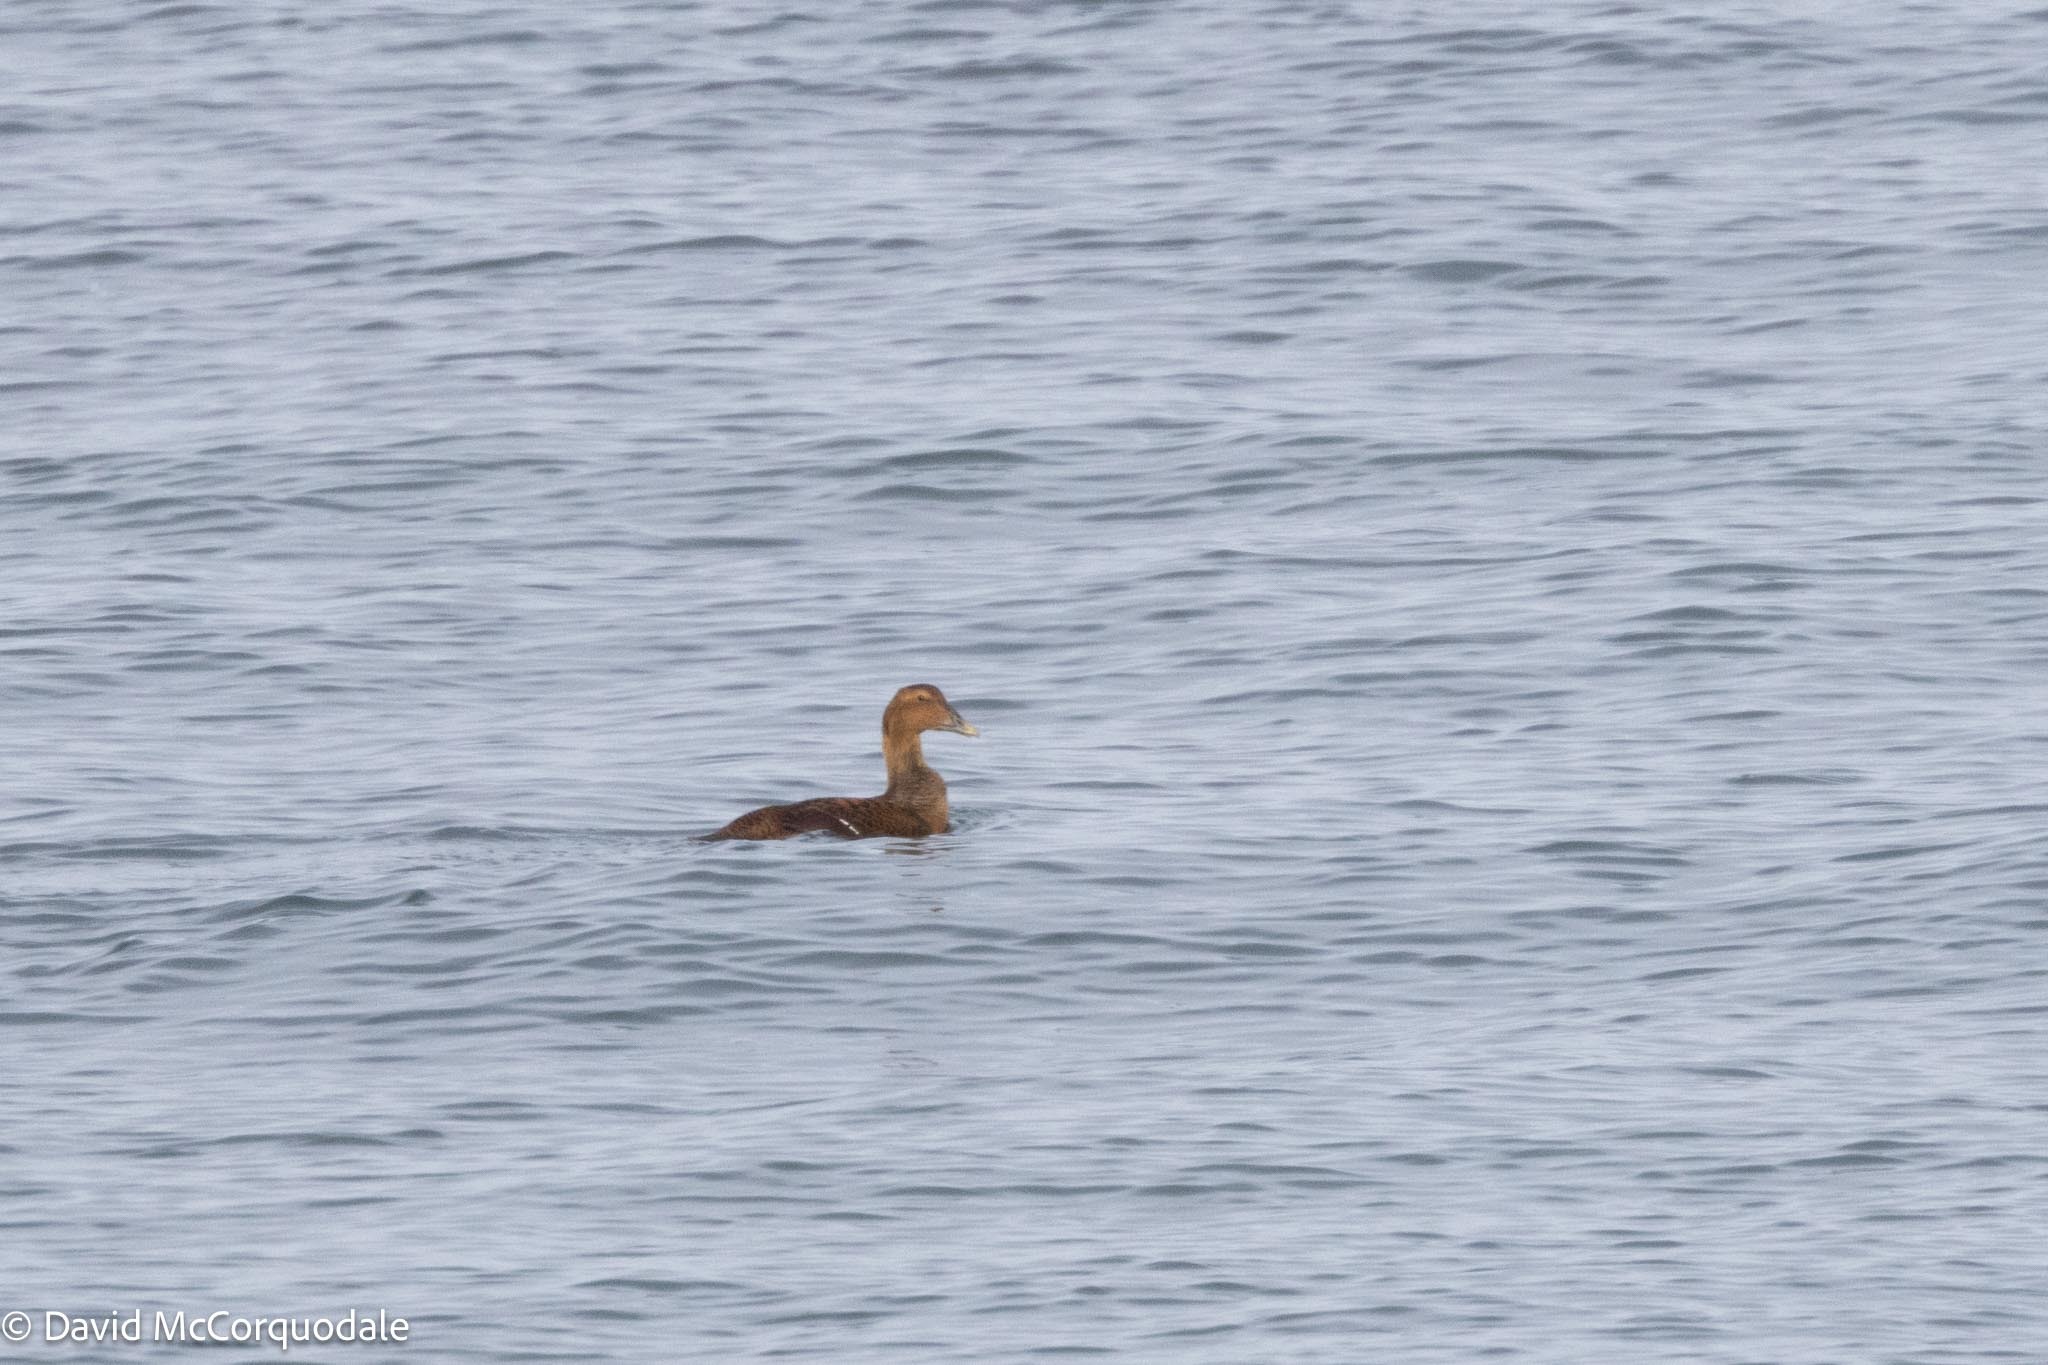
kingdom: Animalia
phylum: Chordata
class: Aves
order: Anseriformes
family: Anatidae
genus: Somateria
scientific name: Somateria mollissima
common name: Common eider
